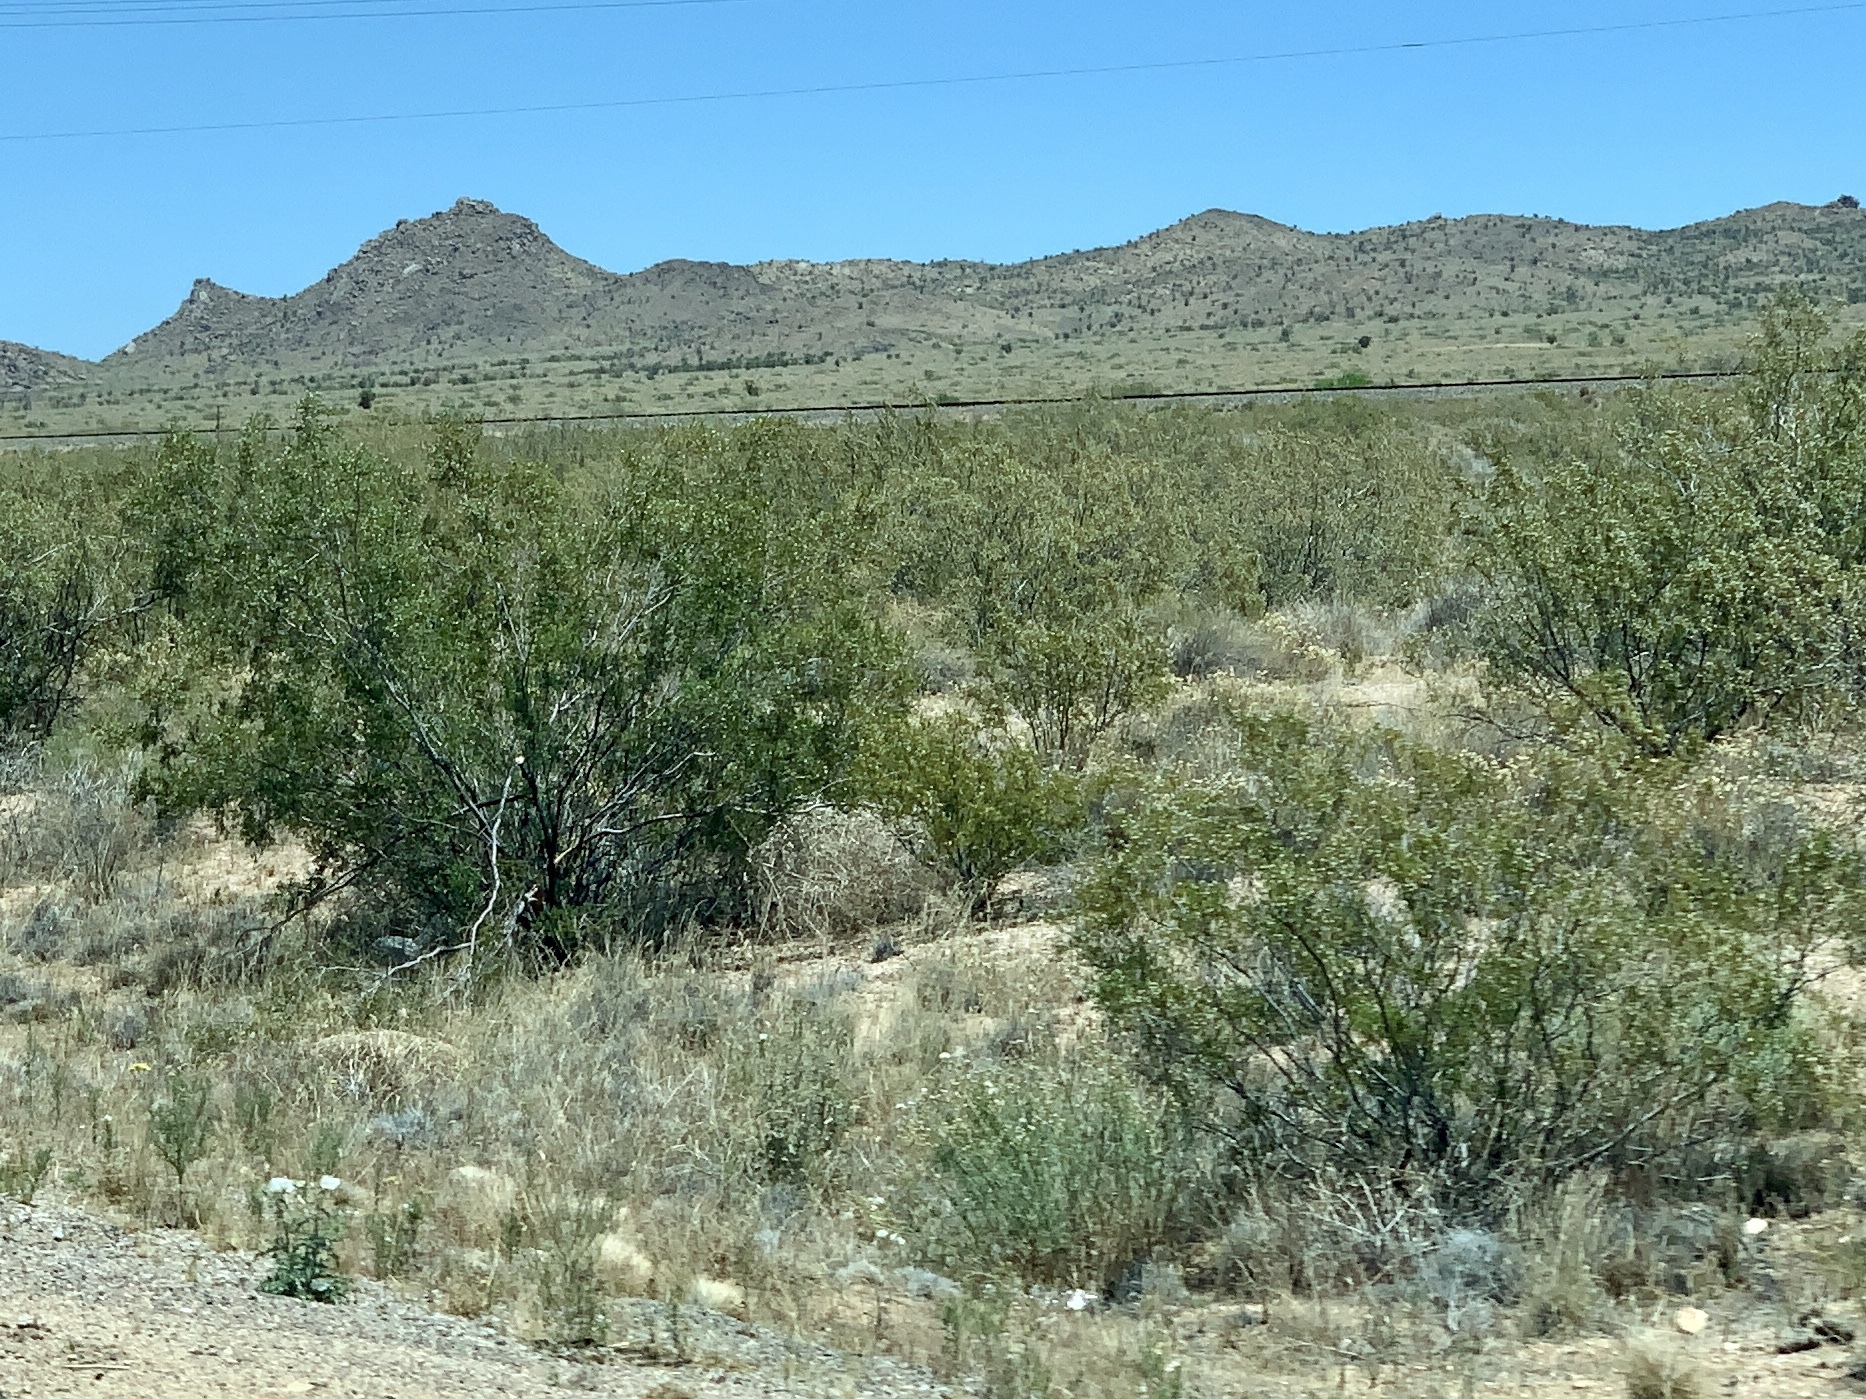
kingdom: Plantae
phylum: Tracheophyta
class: Magnoliopsida
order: Zygophyllales
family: Zygophyllaceae
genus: Larrea
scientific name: Larrea tridentata
